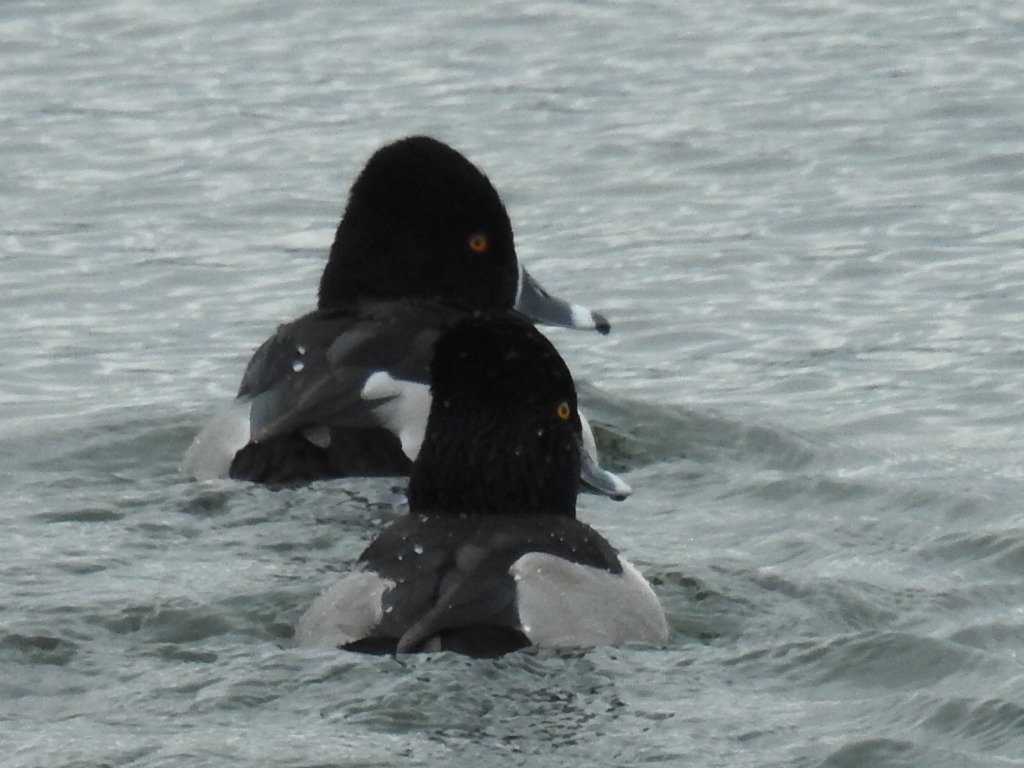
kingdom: Animalia
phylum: Chordata
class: Aves
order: Anseriformes
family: Anatidae
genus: Aythya
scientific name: Aythya collaris
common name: Ring-necked duck
